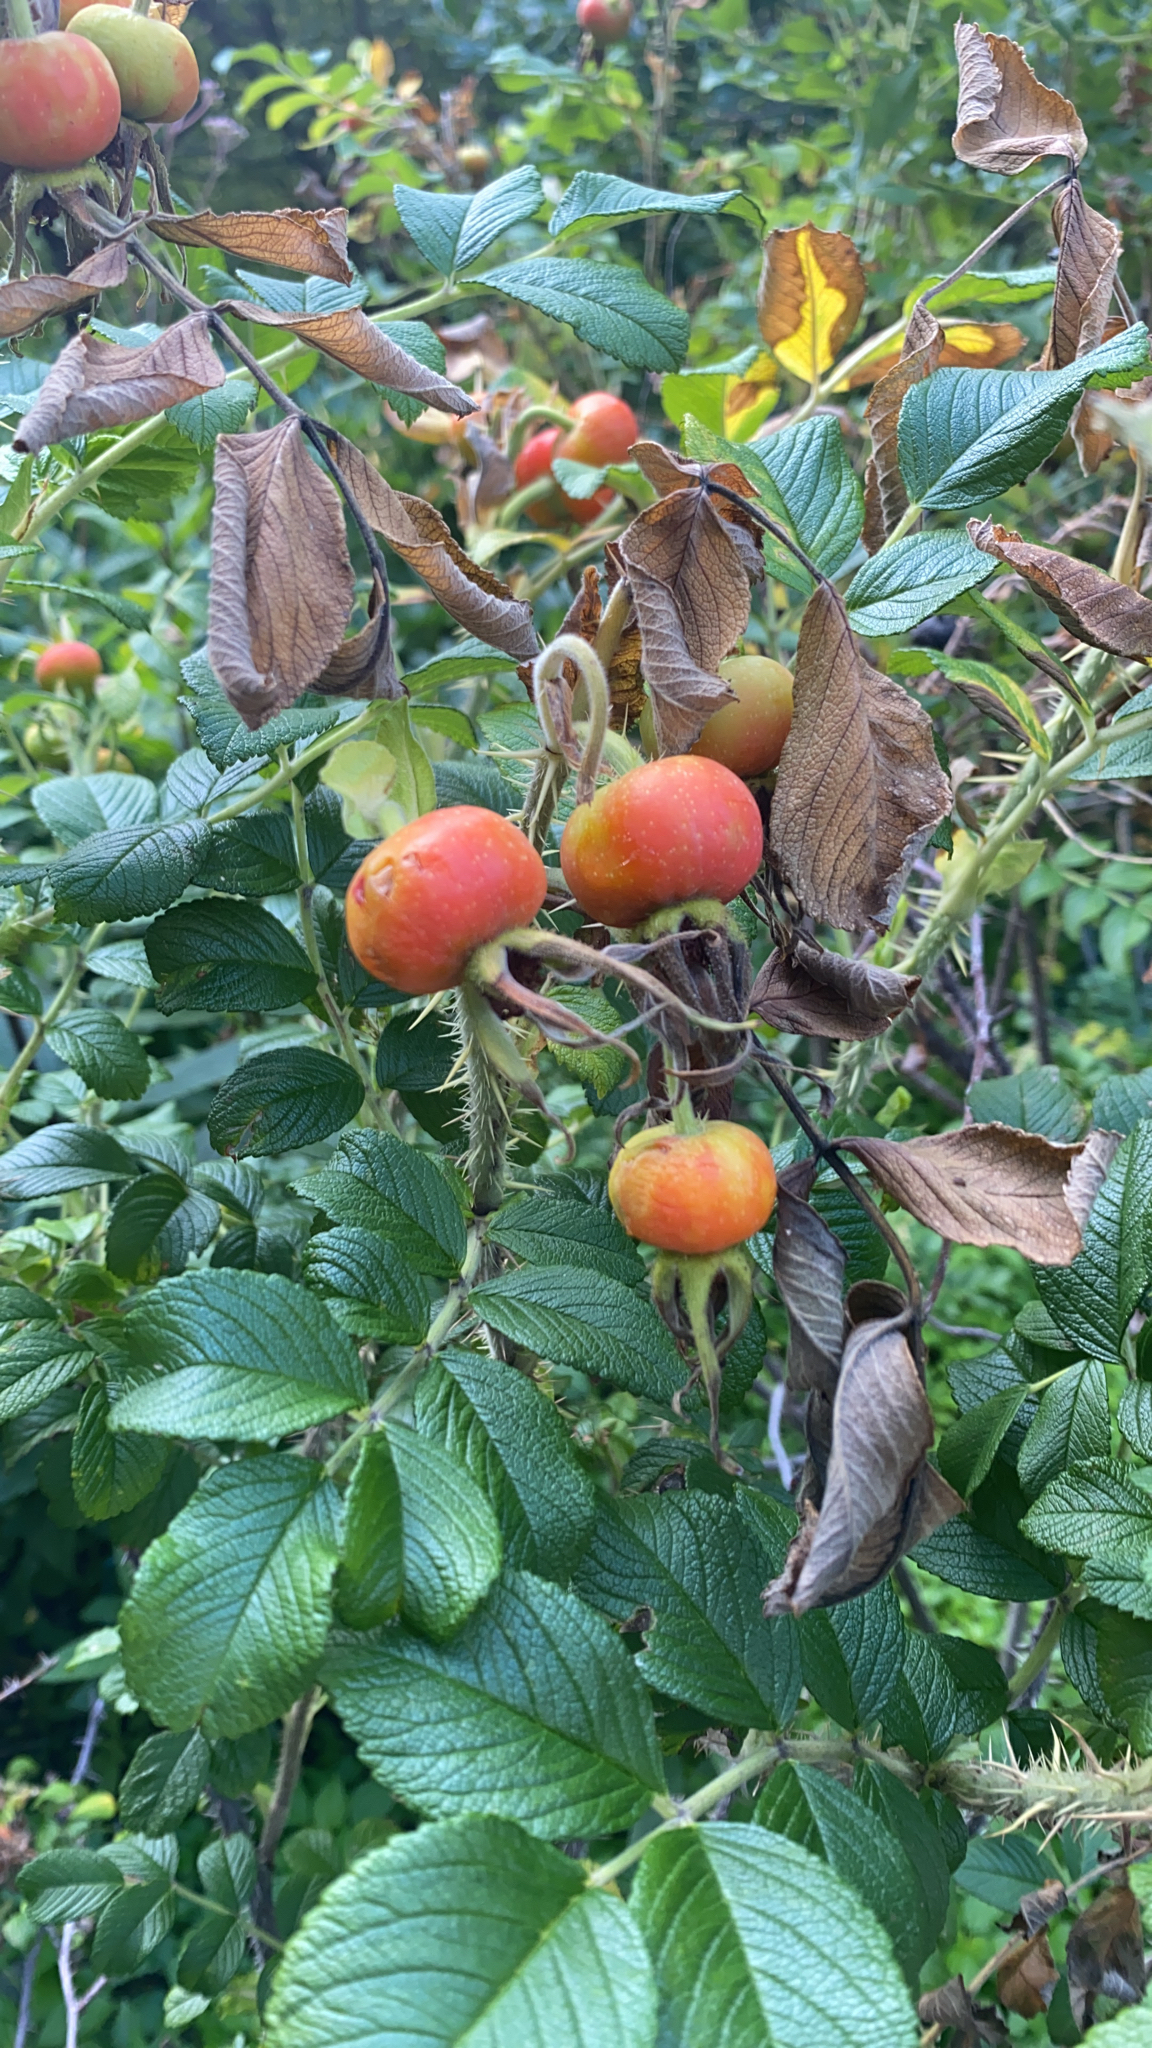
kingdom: Plantae
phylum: Tracheophyta
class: Magnoliopsida
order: Rosales
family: Rosaceae
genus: Rosa
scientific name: Rosa rugosa
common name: Japanese rose
